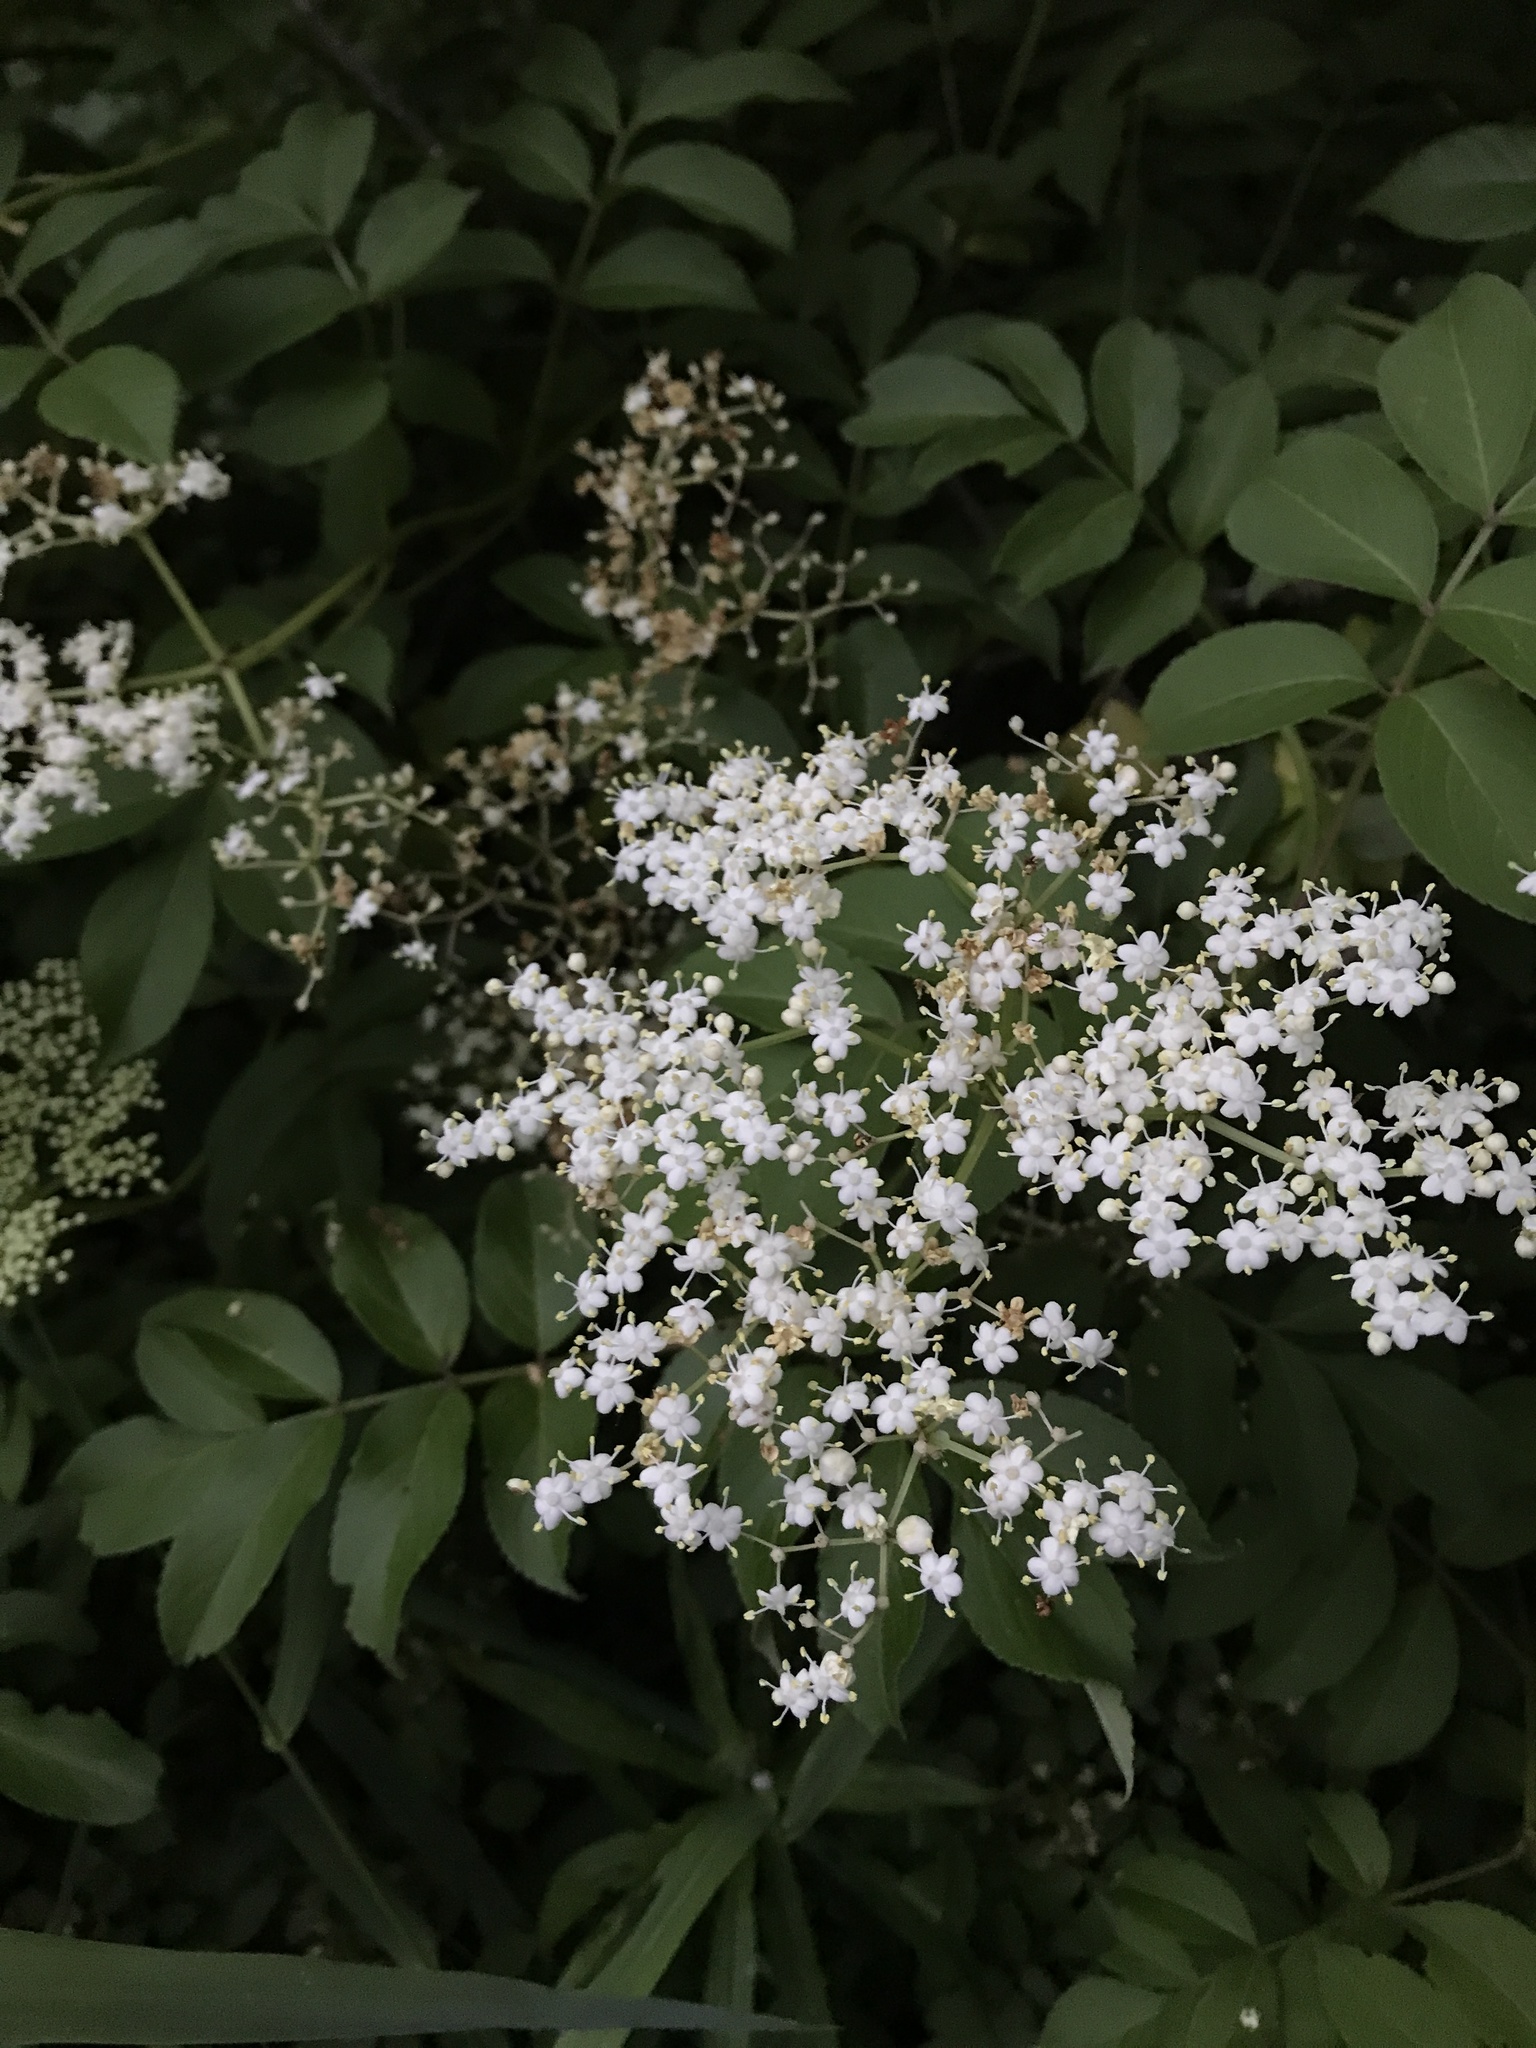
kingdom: Plantae
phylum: Tracheophyta
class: Magnoliopsida
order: Dipsacales
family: Viburnaceae
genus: Sambucus
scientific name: Sambucus canadensis
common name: American elder
